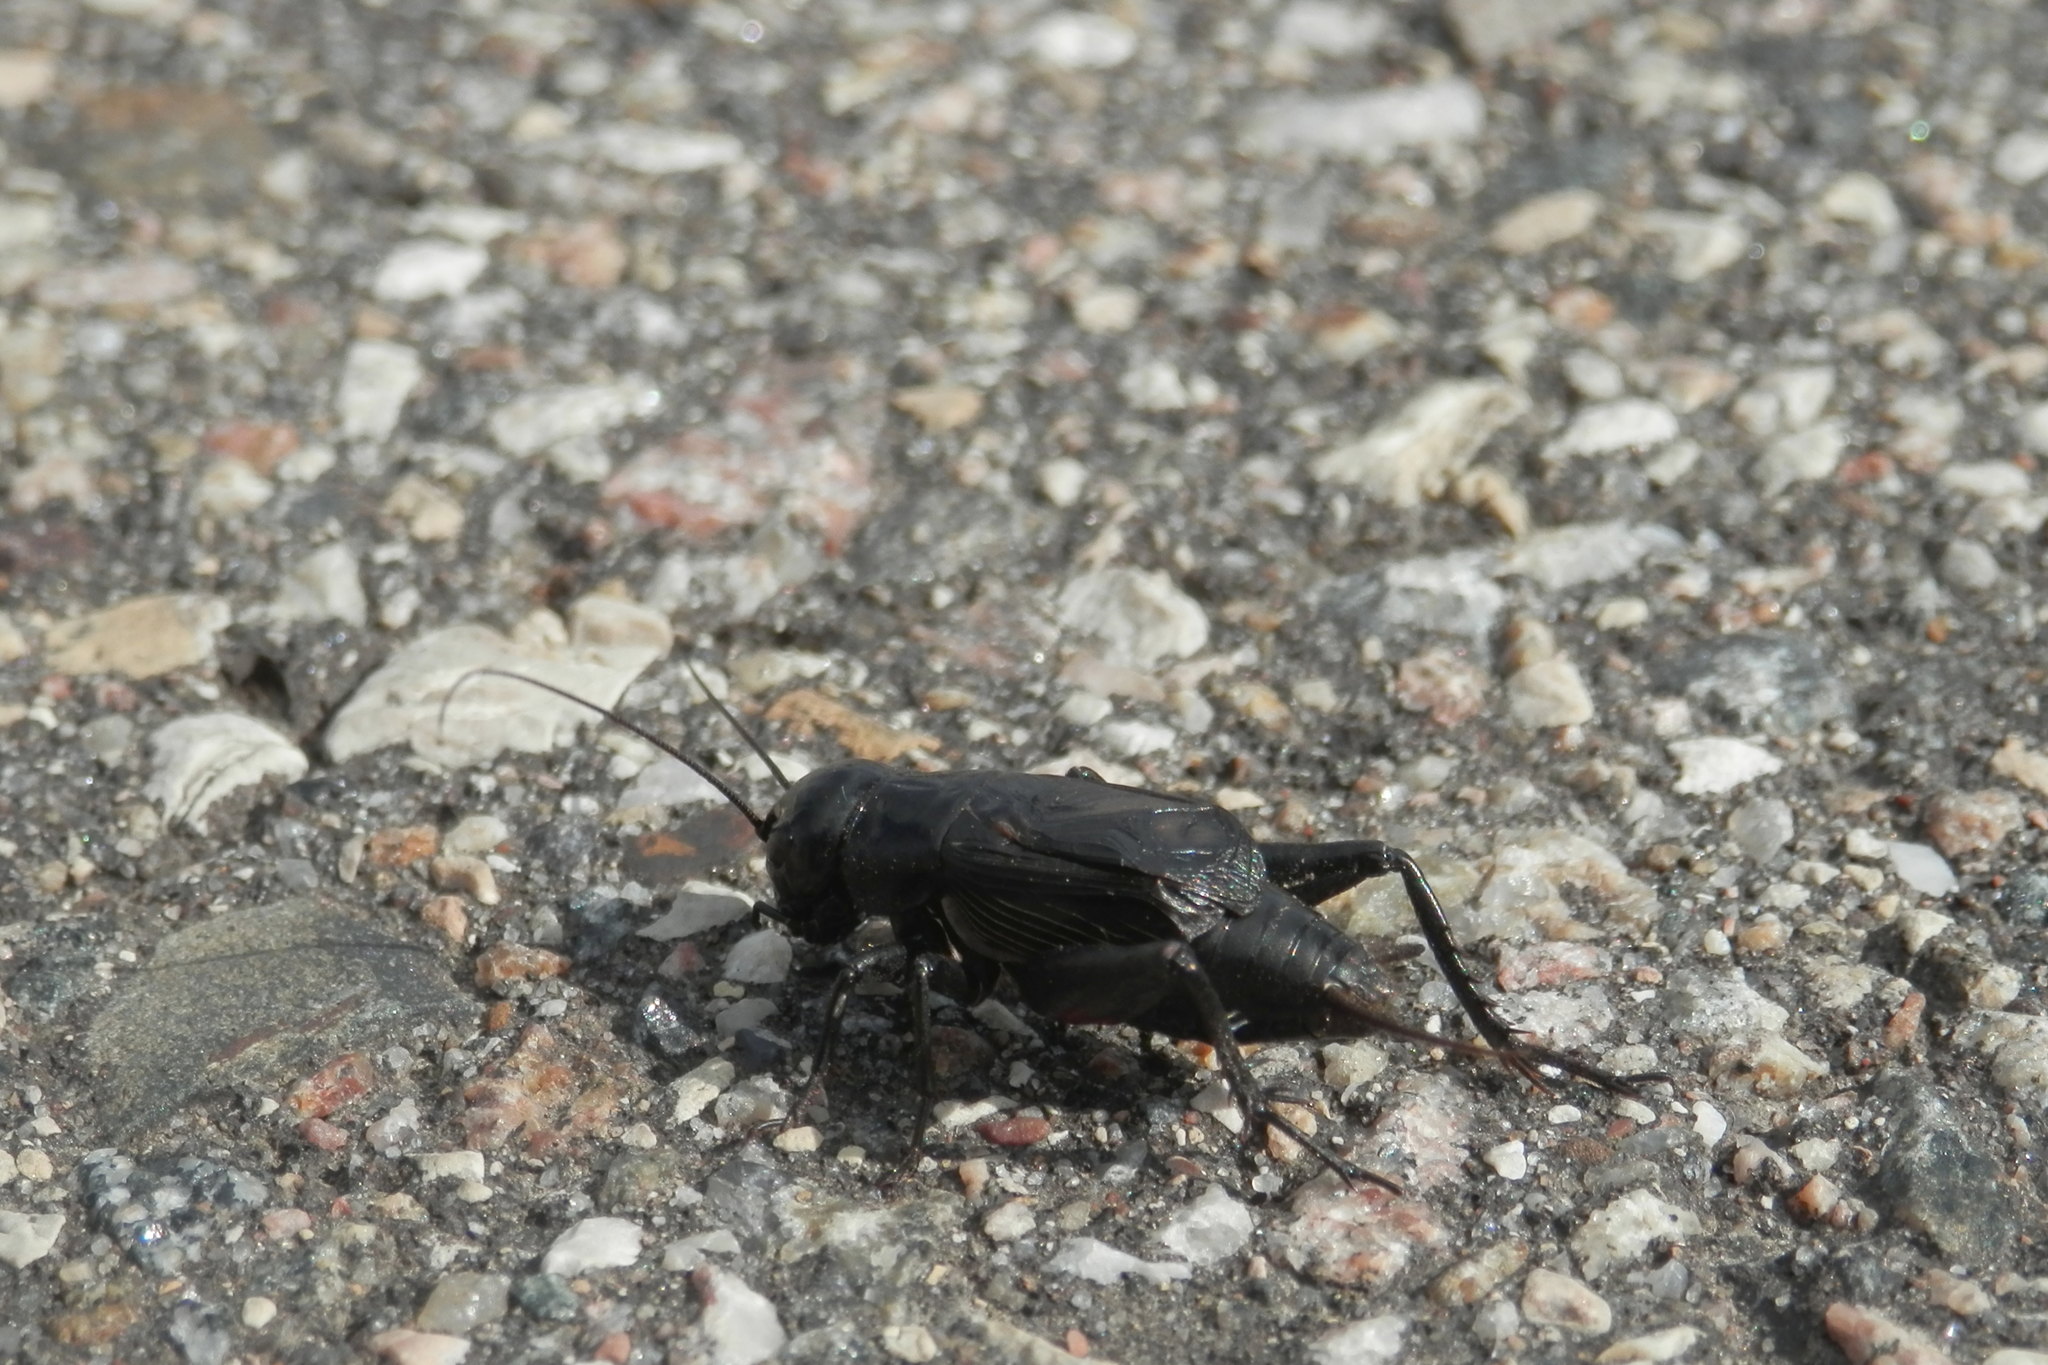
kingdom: Animalia
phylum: Arthropoda
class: Insecta
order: Orthoptera
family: Gryllidae
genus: Gryllus
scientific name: Gryllus pennsylvanicus
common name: Fall field cricket
